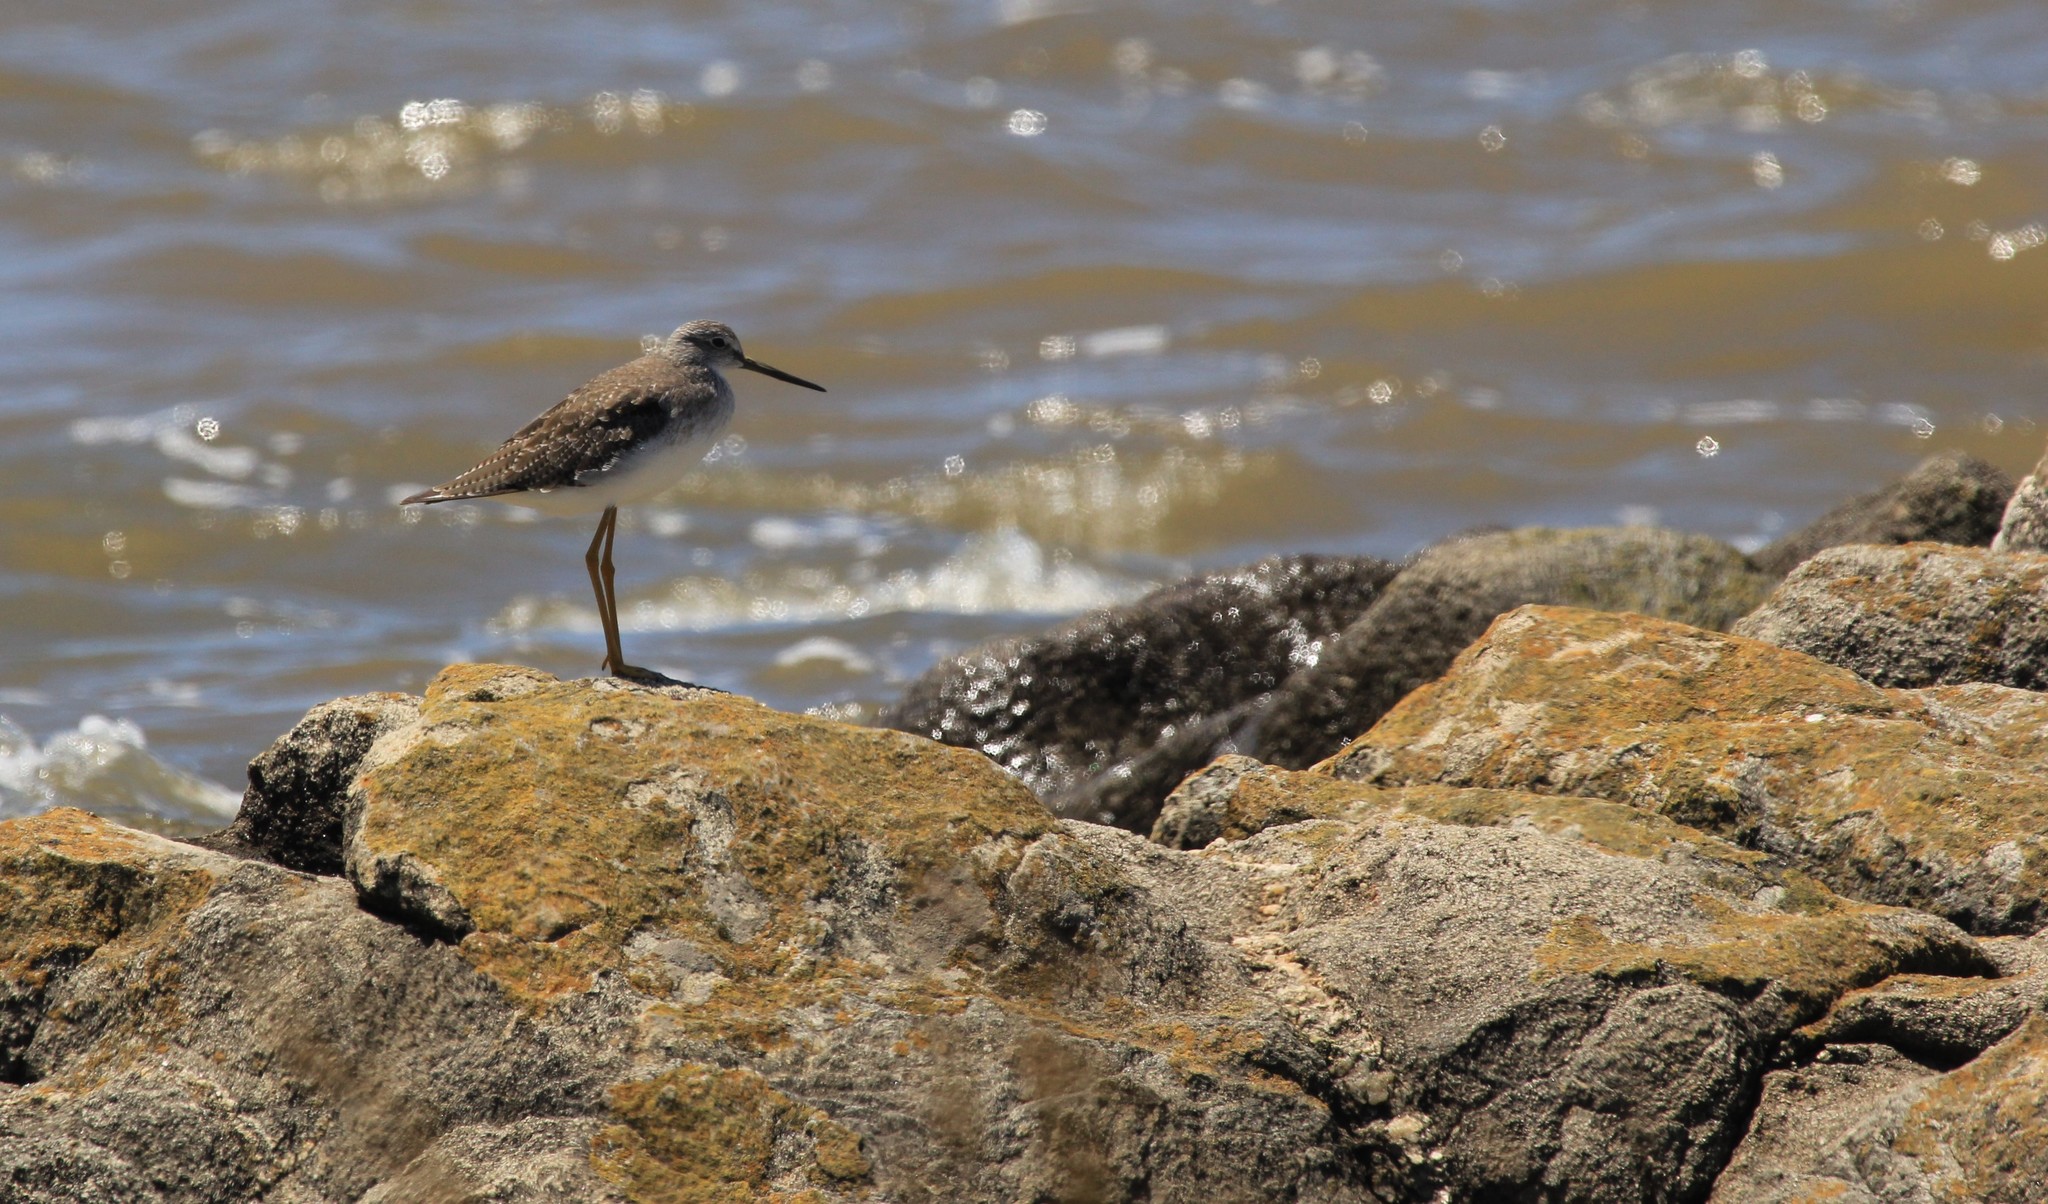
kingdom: Animalia
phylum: Chordata
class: Aves
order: Charadriiformes
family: Scolopacidae
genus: Tringa
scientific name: Tringa melanoleuca
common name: Greater yellowlegs
